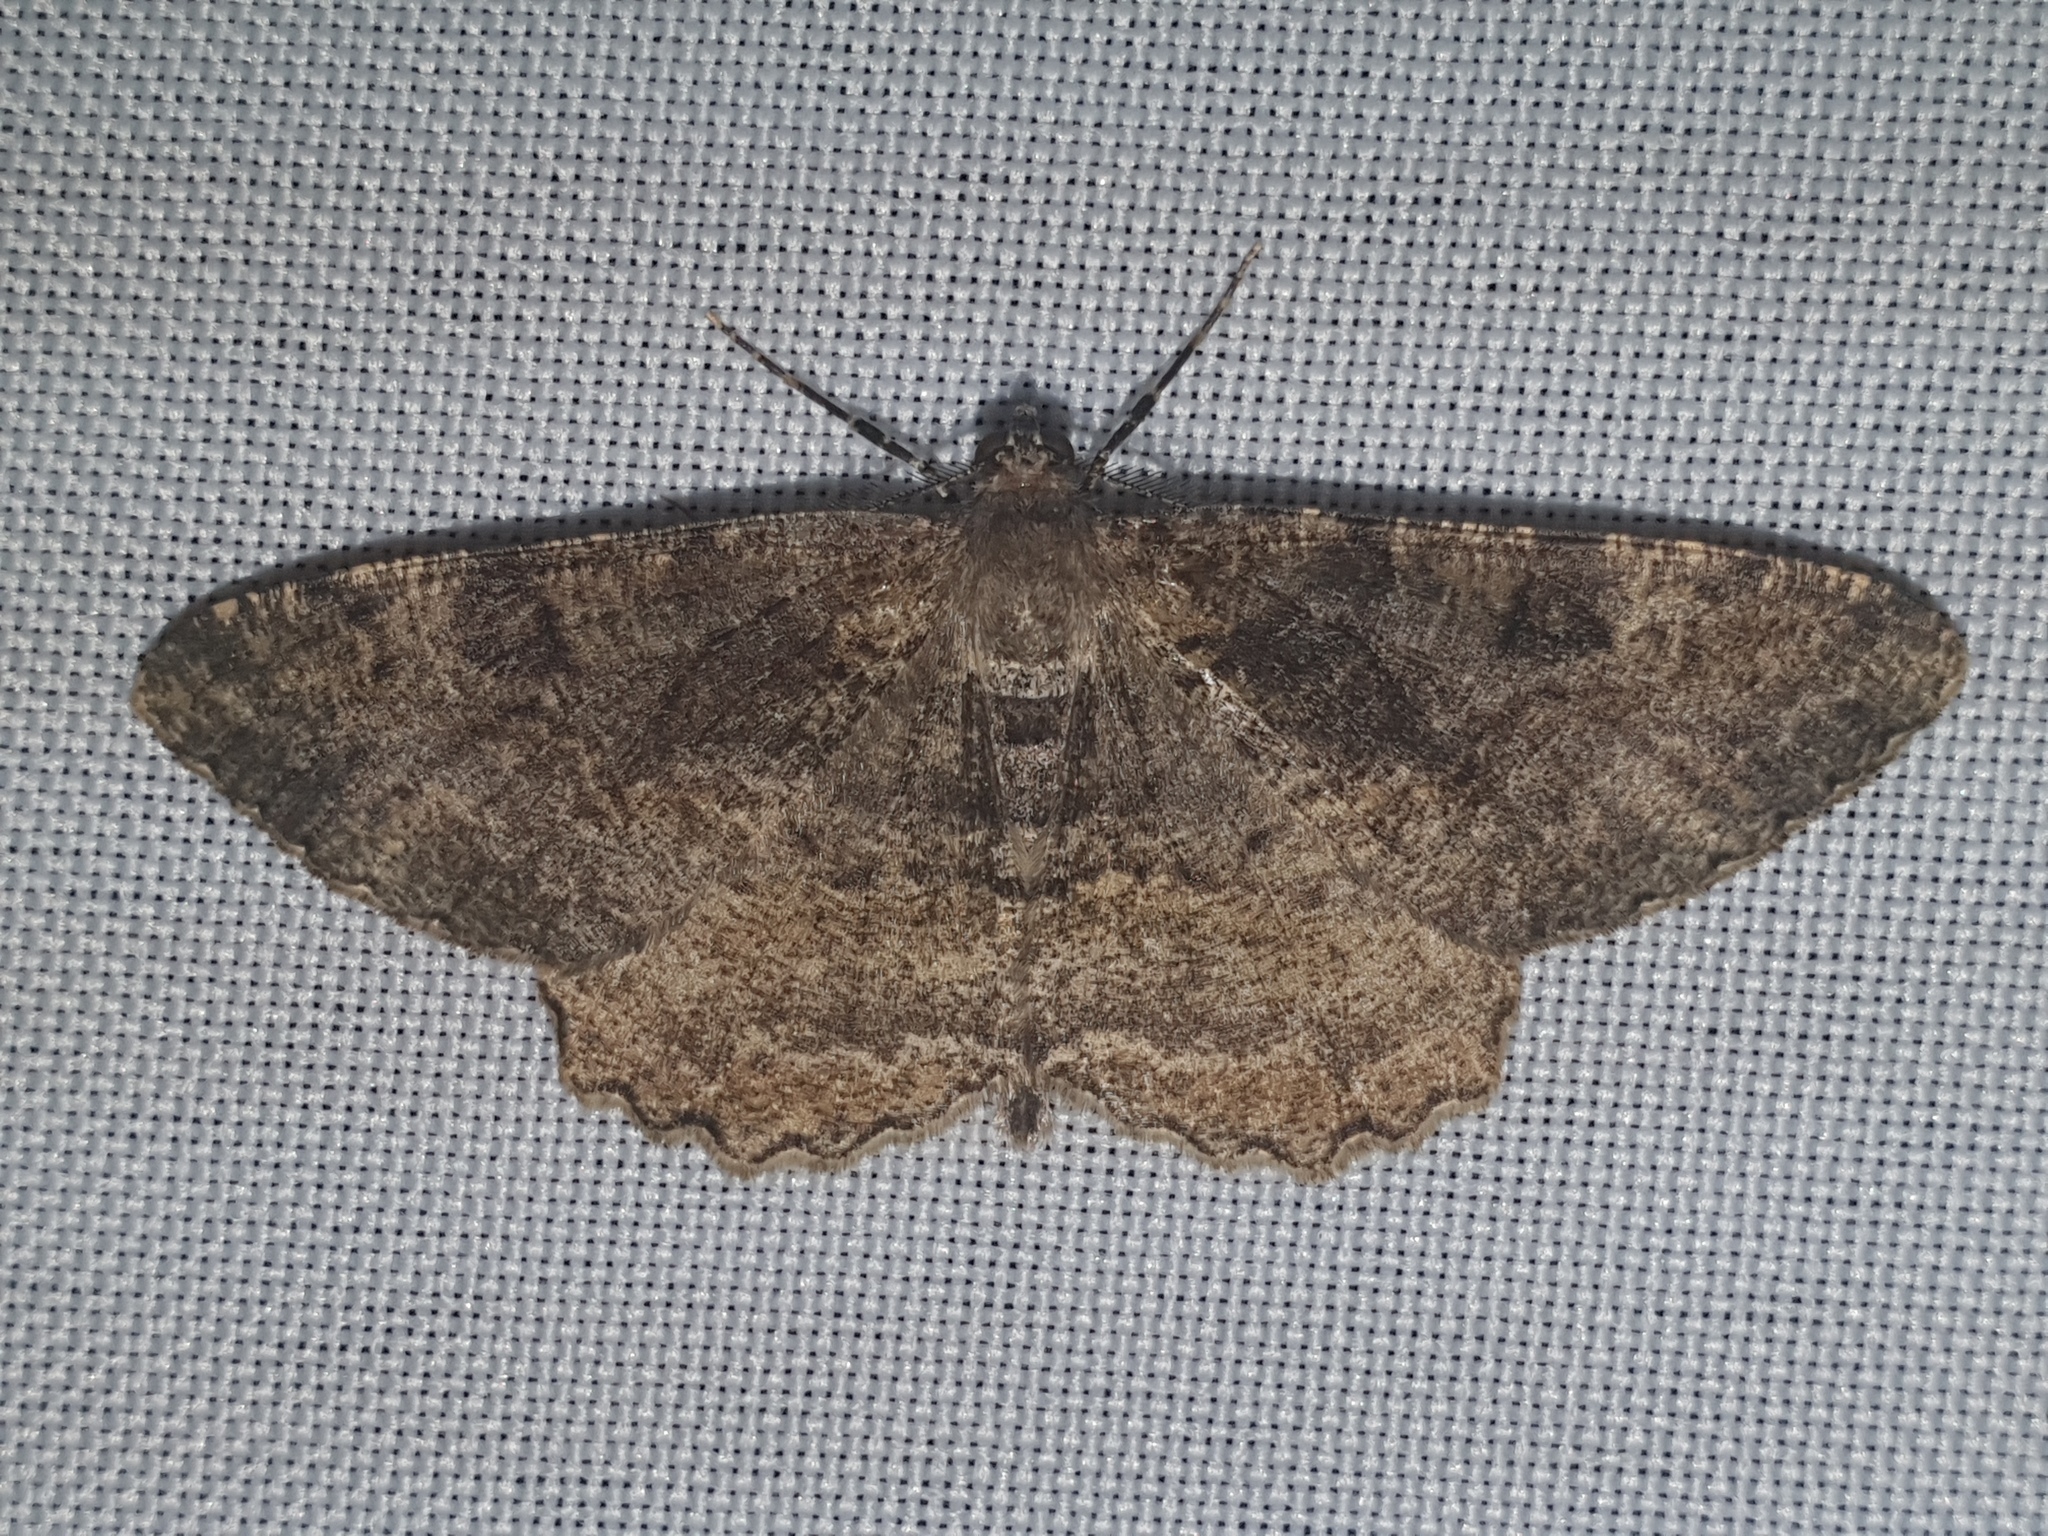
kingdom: Animalia
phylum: Arthropoda
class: Insecta
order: Lepidoptera
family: Geometridae
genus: Alcis
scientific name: Alcis repandata
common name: Mottled beauty
